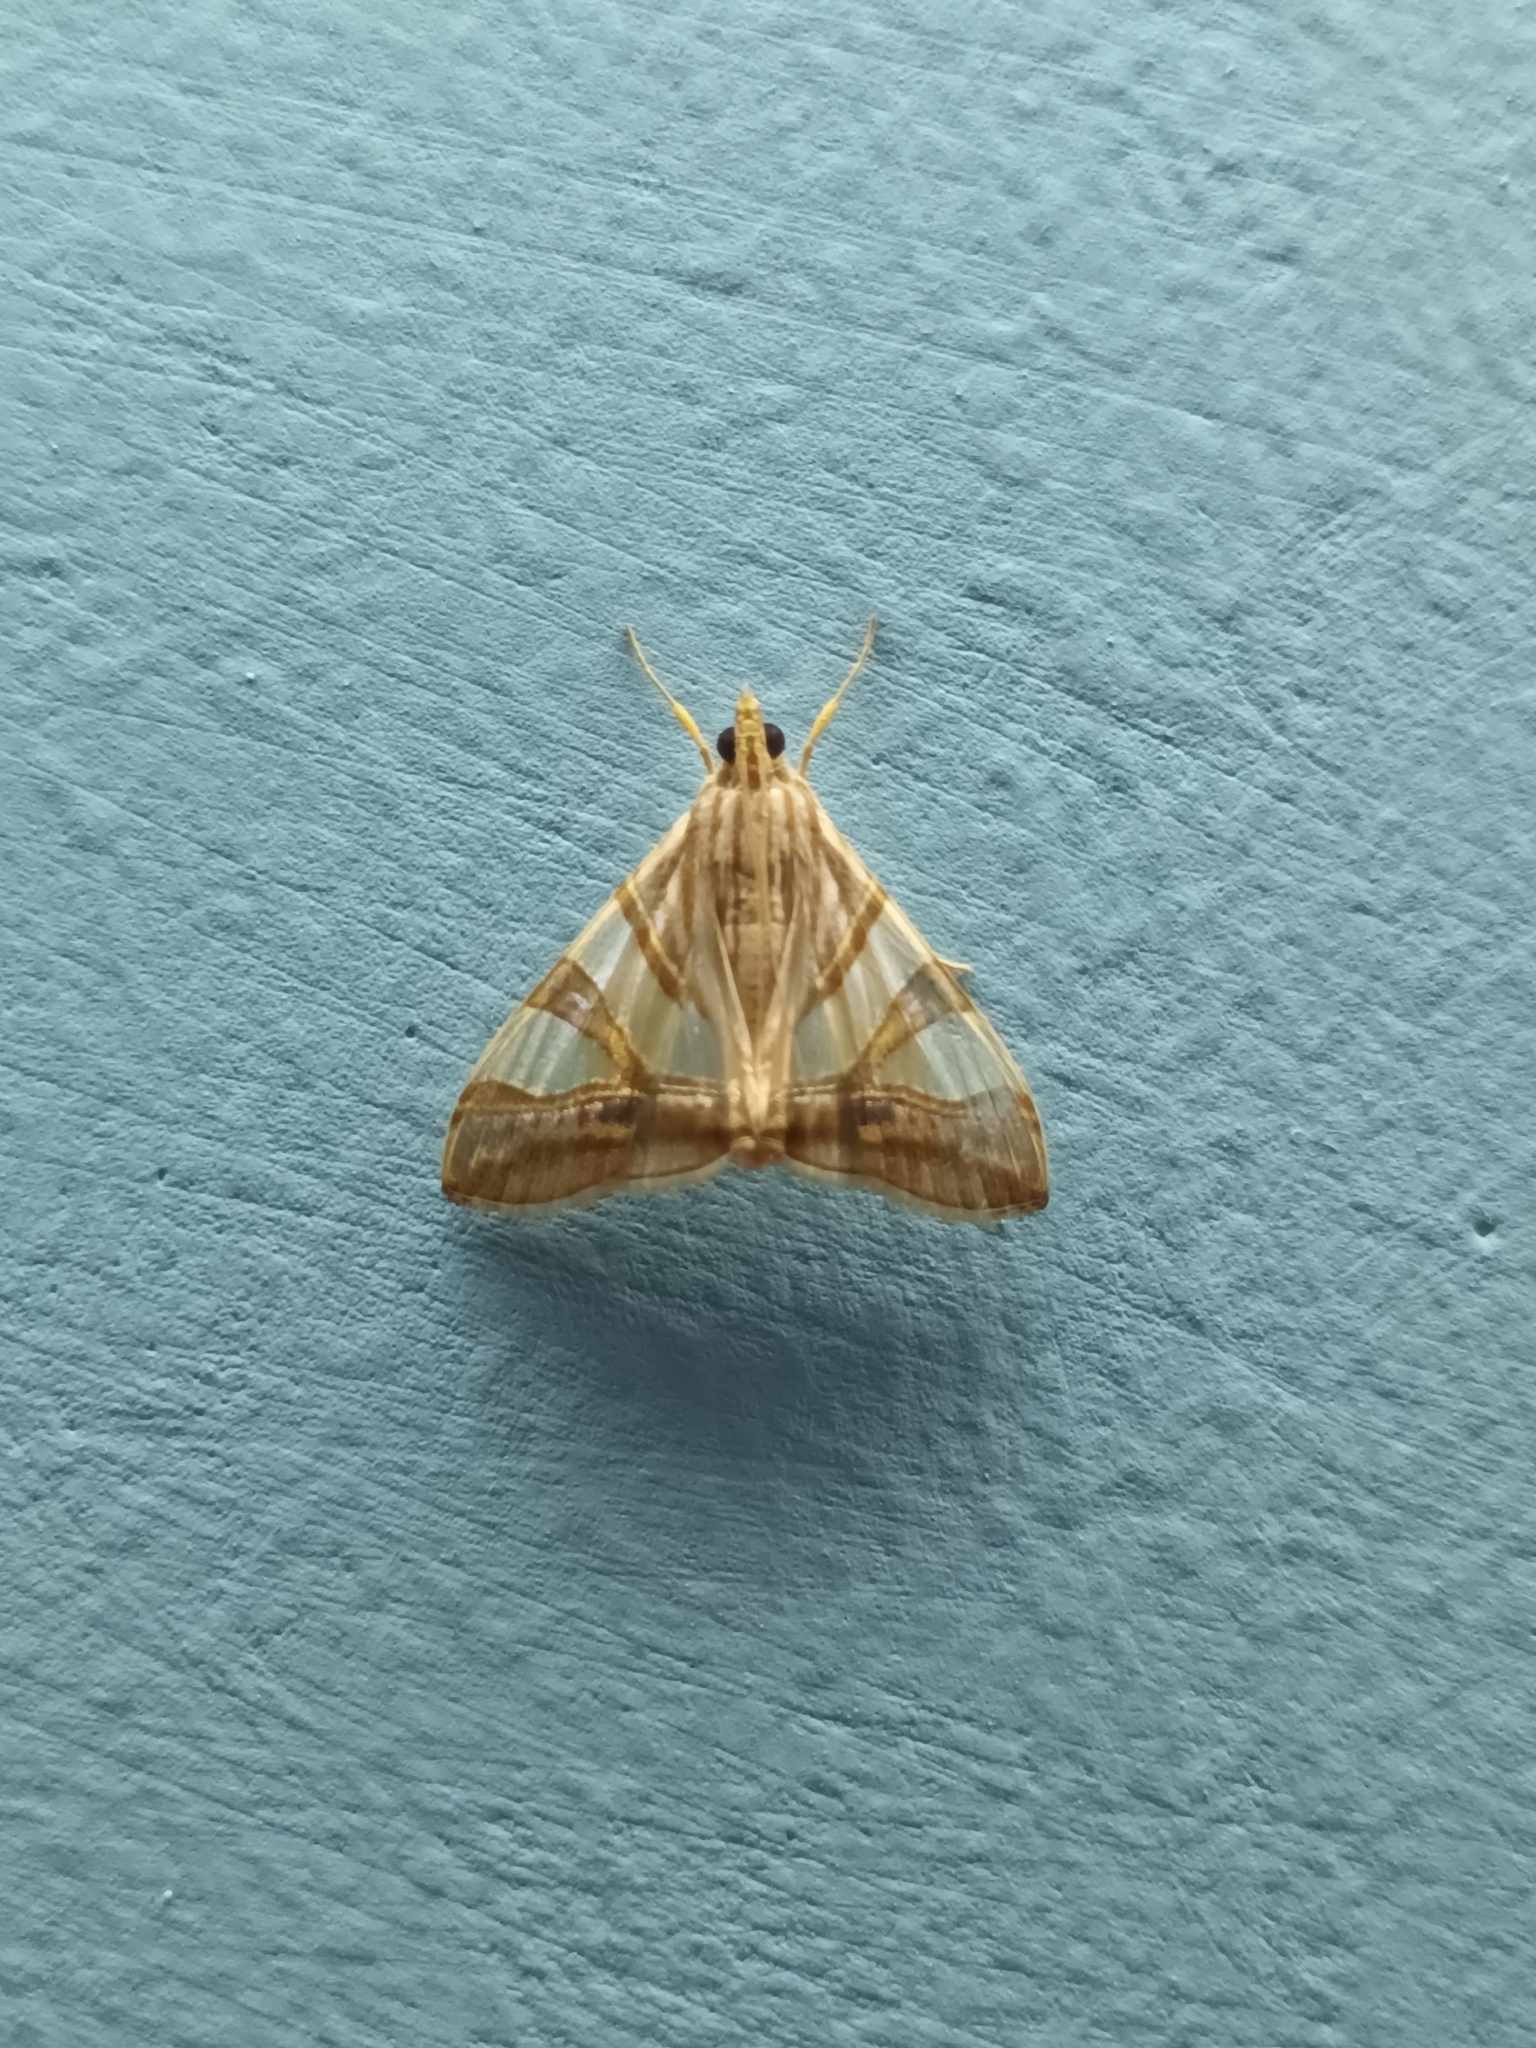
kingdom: Animalia
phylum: Arthropoda
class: Insecta
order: Lepidoptera
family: Crambidae
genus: Agrioglypta
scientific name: Agrioglypta zelimalis
